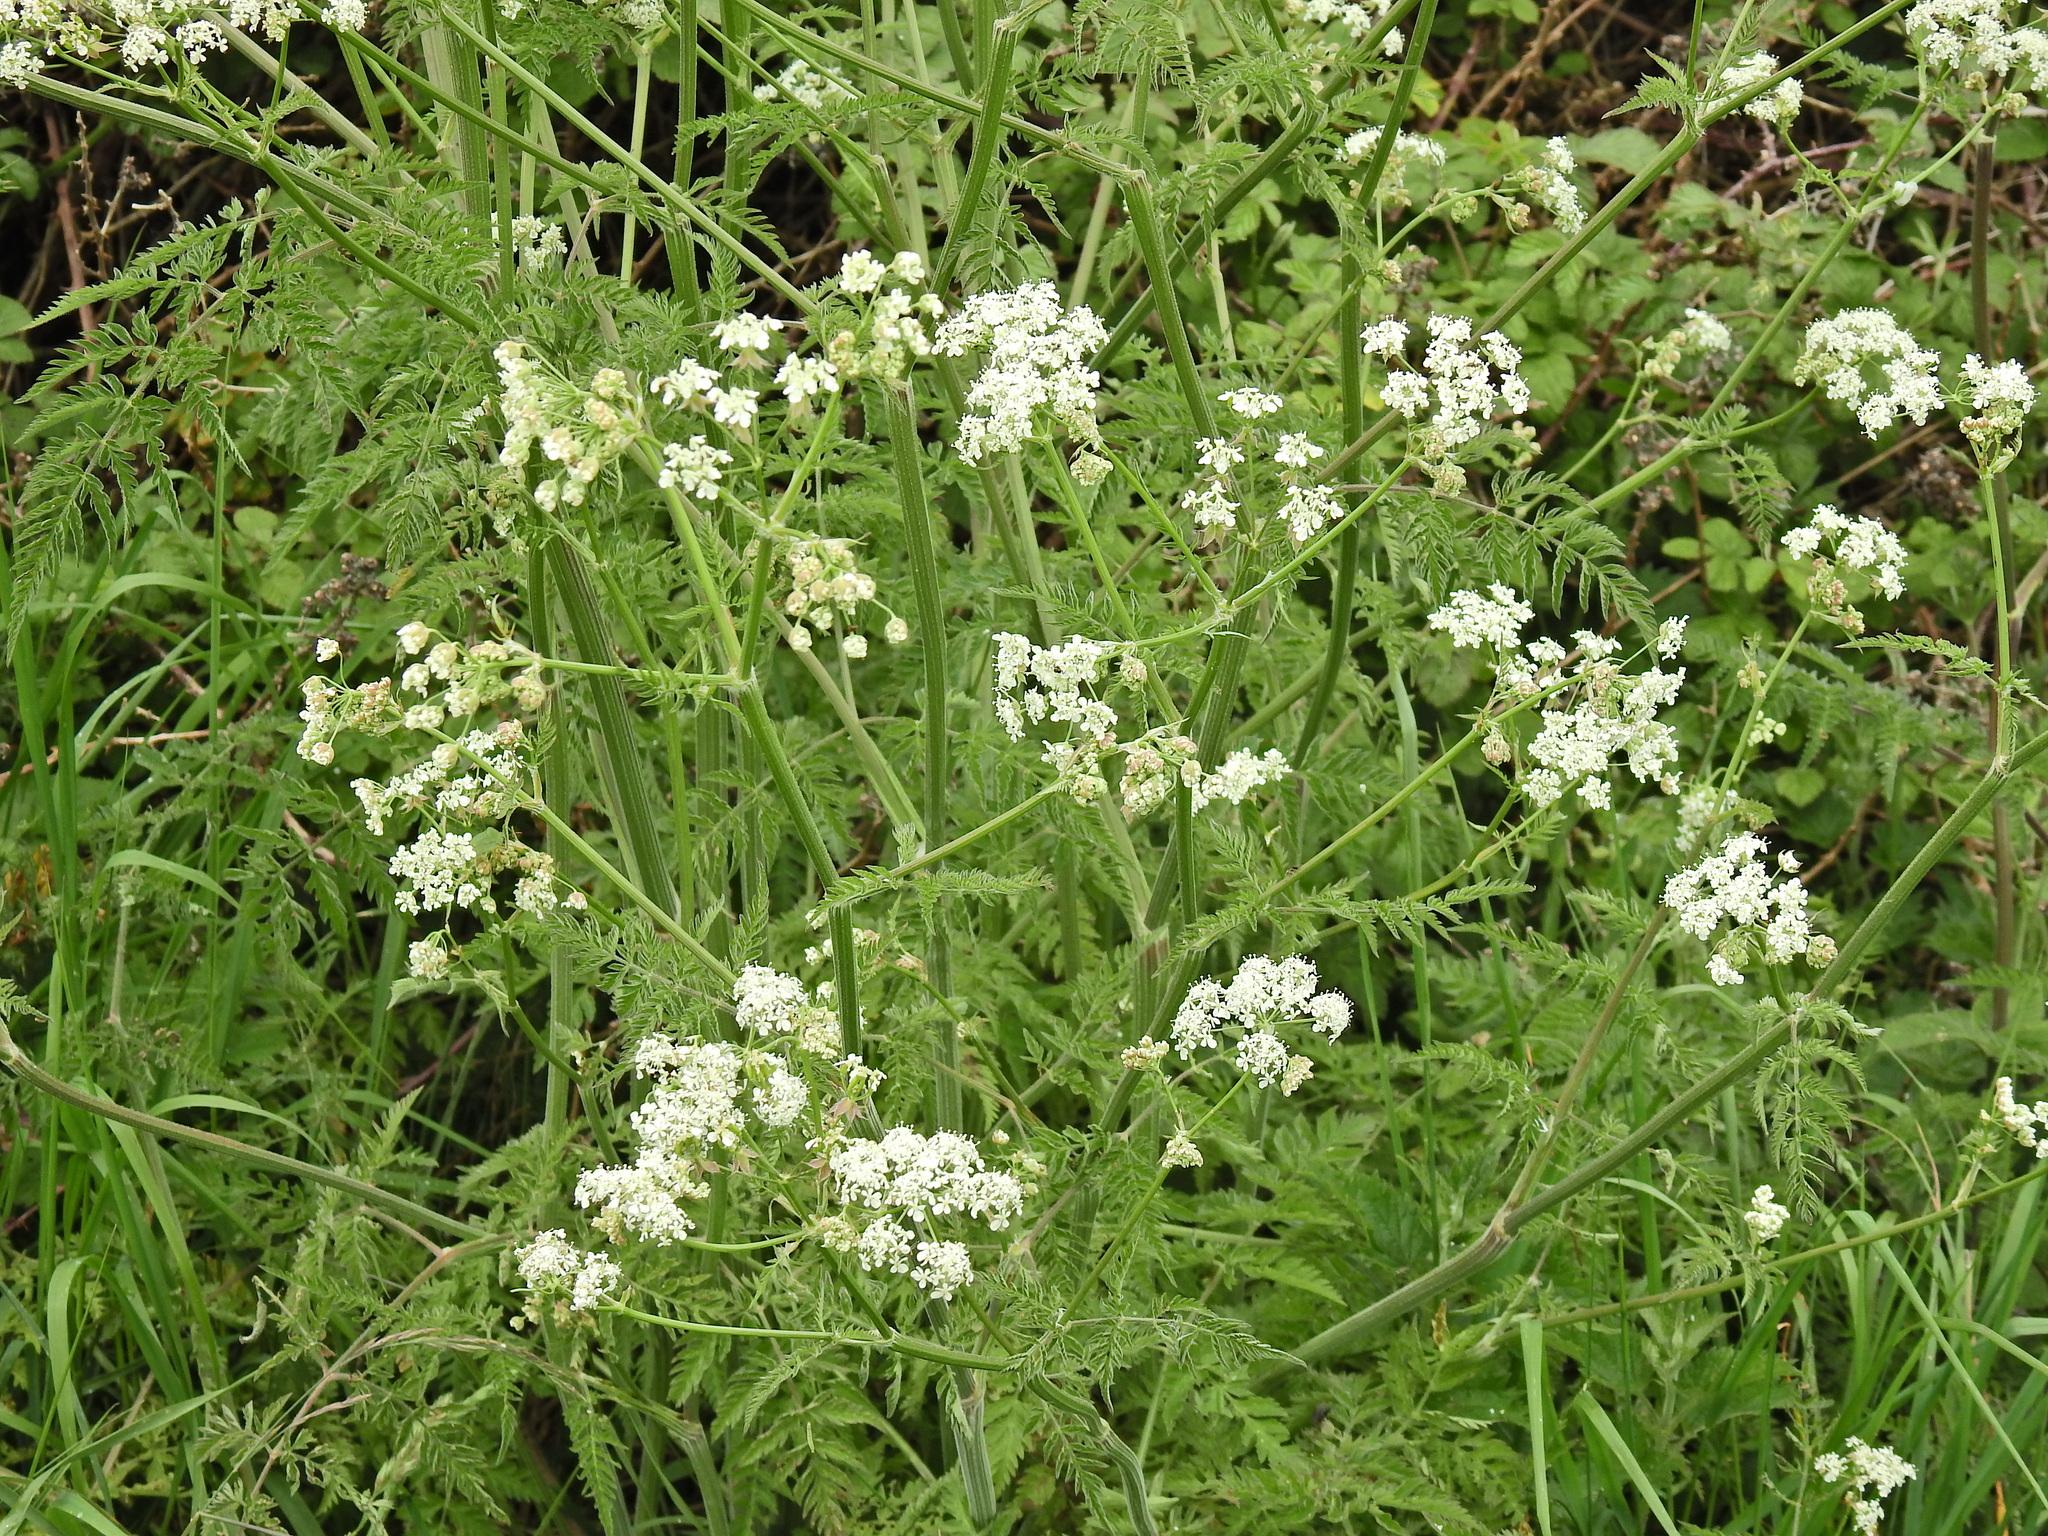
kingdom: Plantae
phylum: Tracheophyta
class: Magnoliopsida
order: Apiales
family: Apiaceae
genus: Anthriscus
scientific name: Anthriscus sylvestris
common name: Cow parsley
